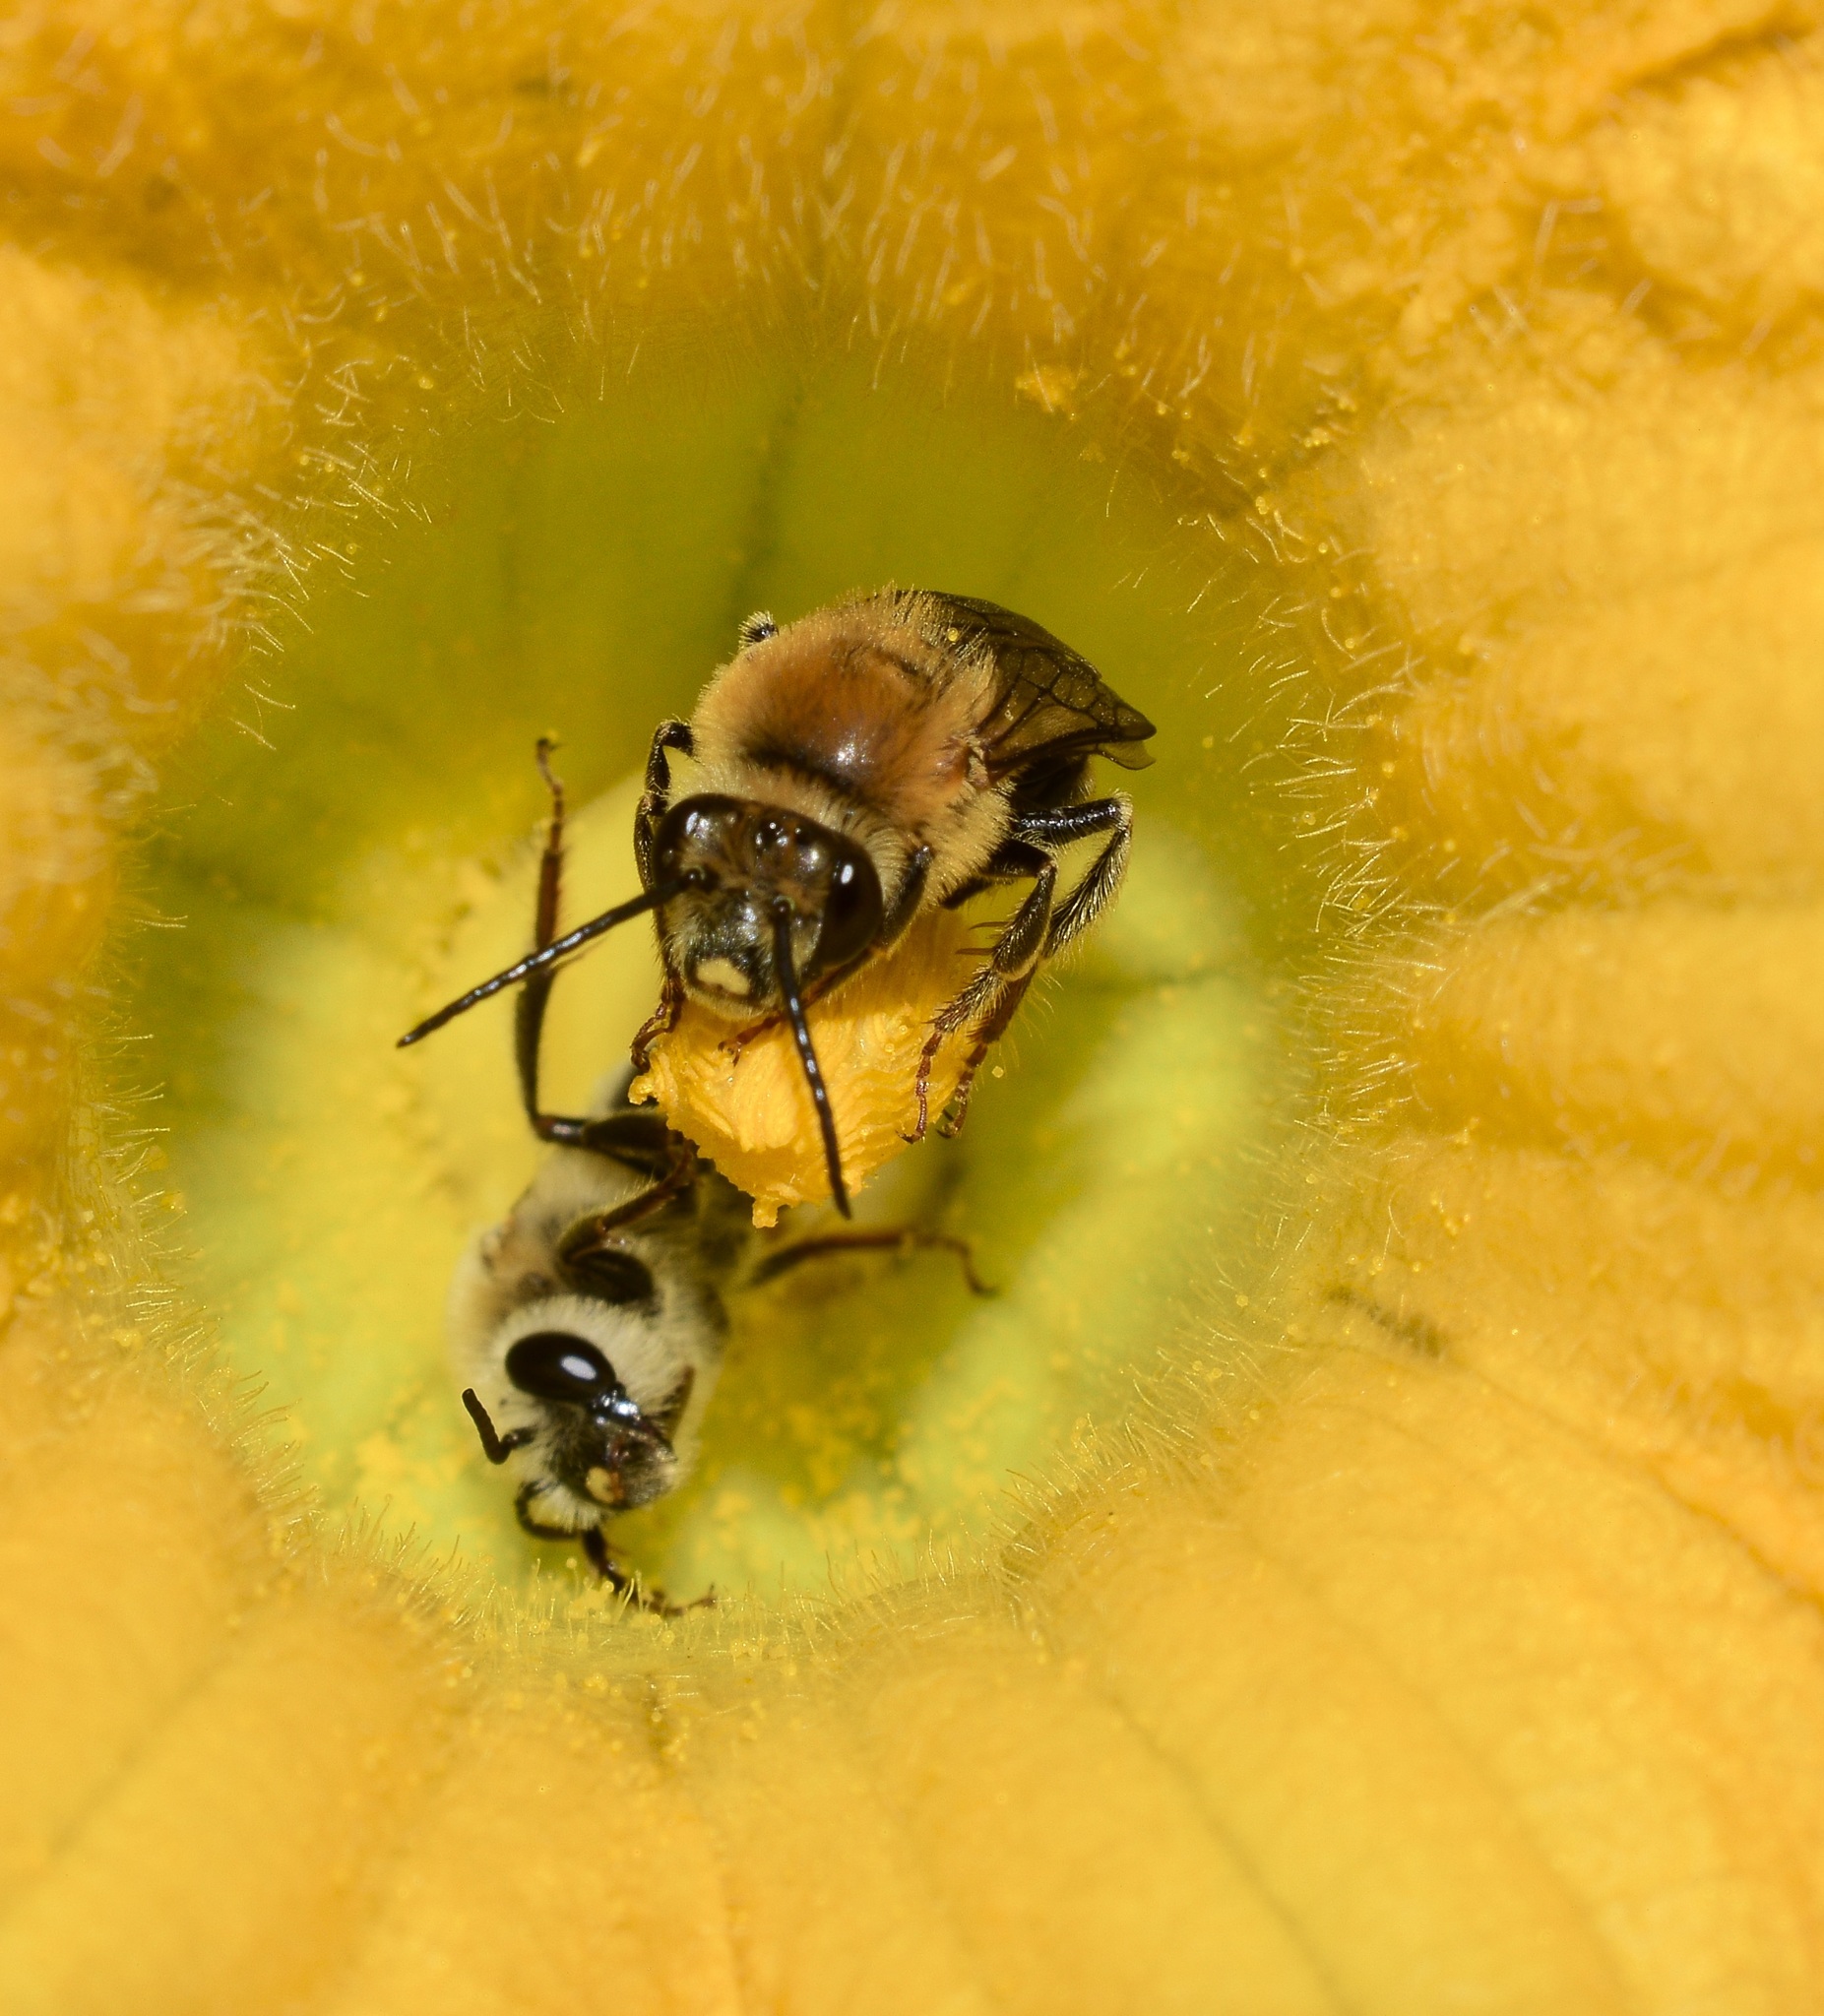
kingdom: Animalia
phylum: Arthropoda
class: Insecta
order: Hymenoptera
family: Apidae
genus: Peponapis
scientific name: Peponapis pruinosa
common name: Pruinose squash bee
